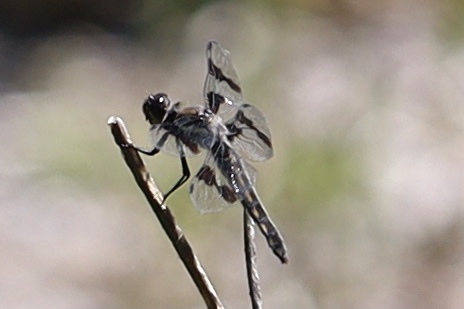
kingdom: Animalia
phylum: Arthropoda
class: Insecta
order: Odonata
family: Libellulidae
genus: Libellula
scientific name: Libellula forensis
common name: Eight-spotted skimmer
